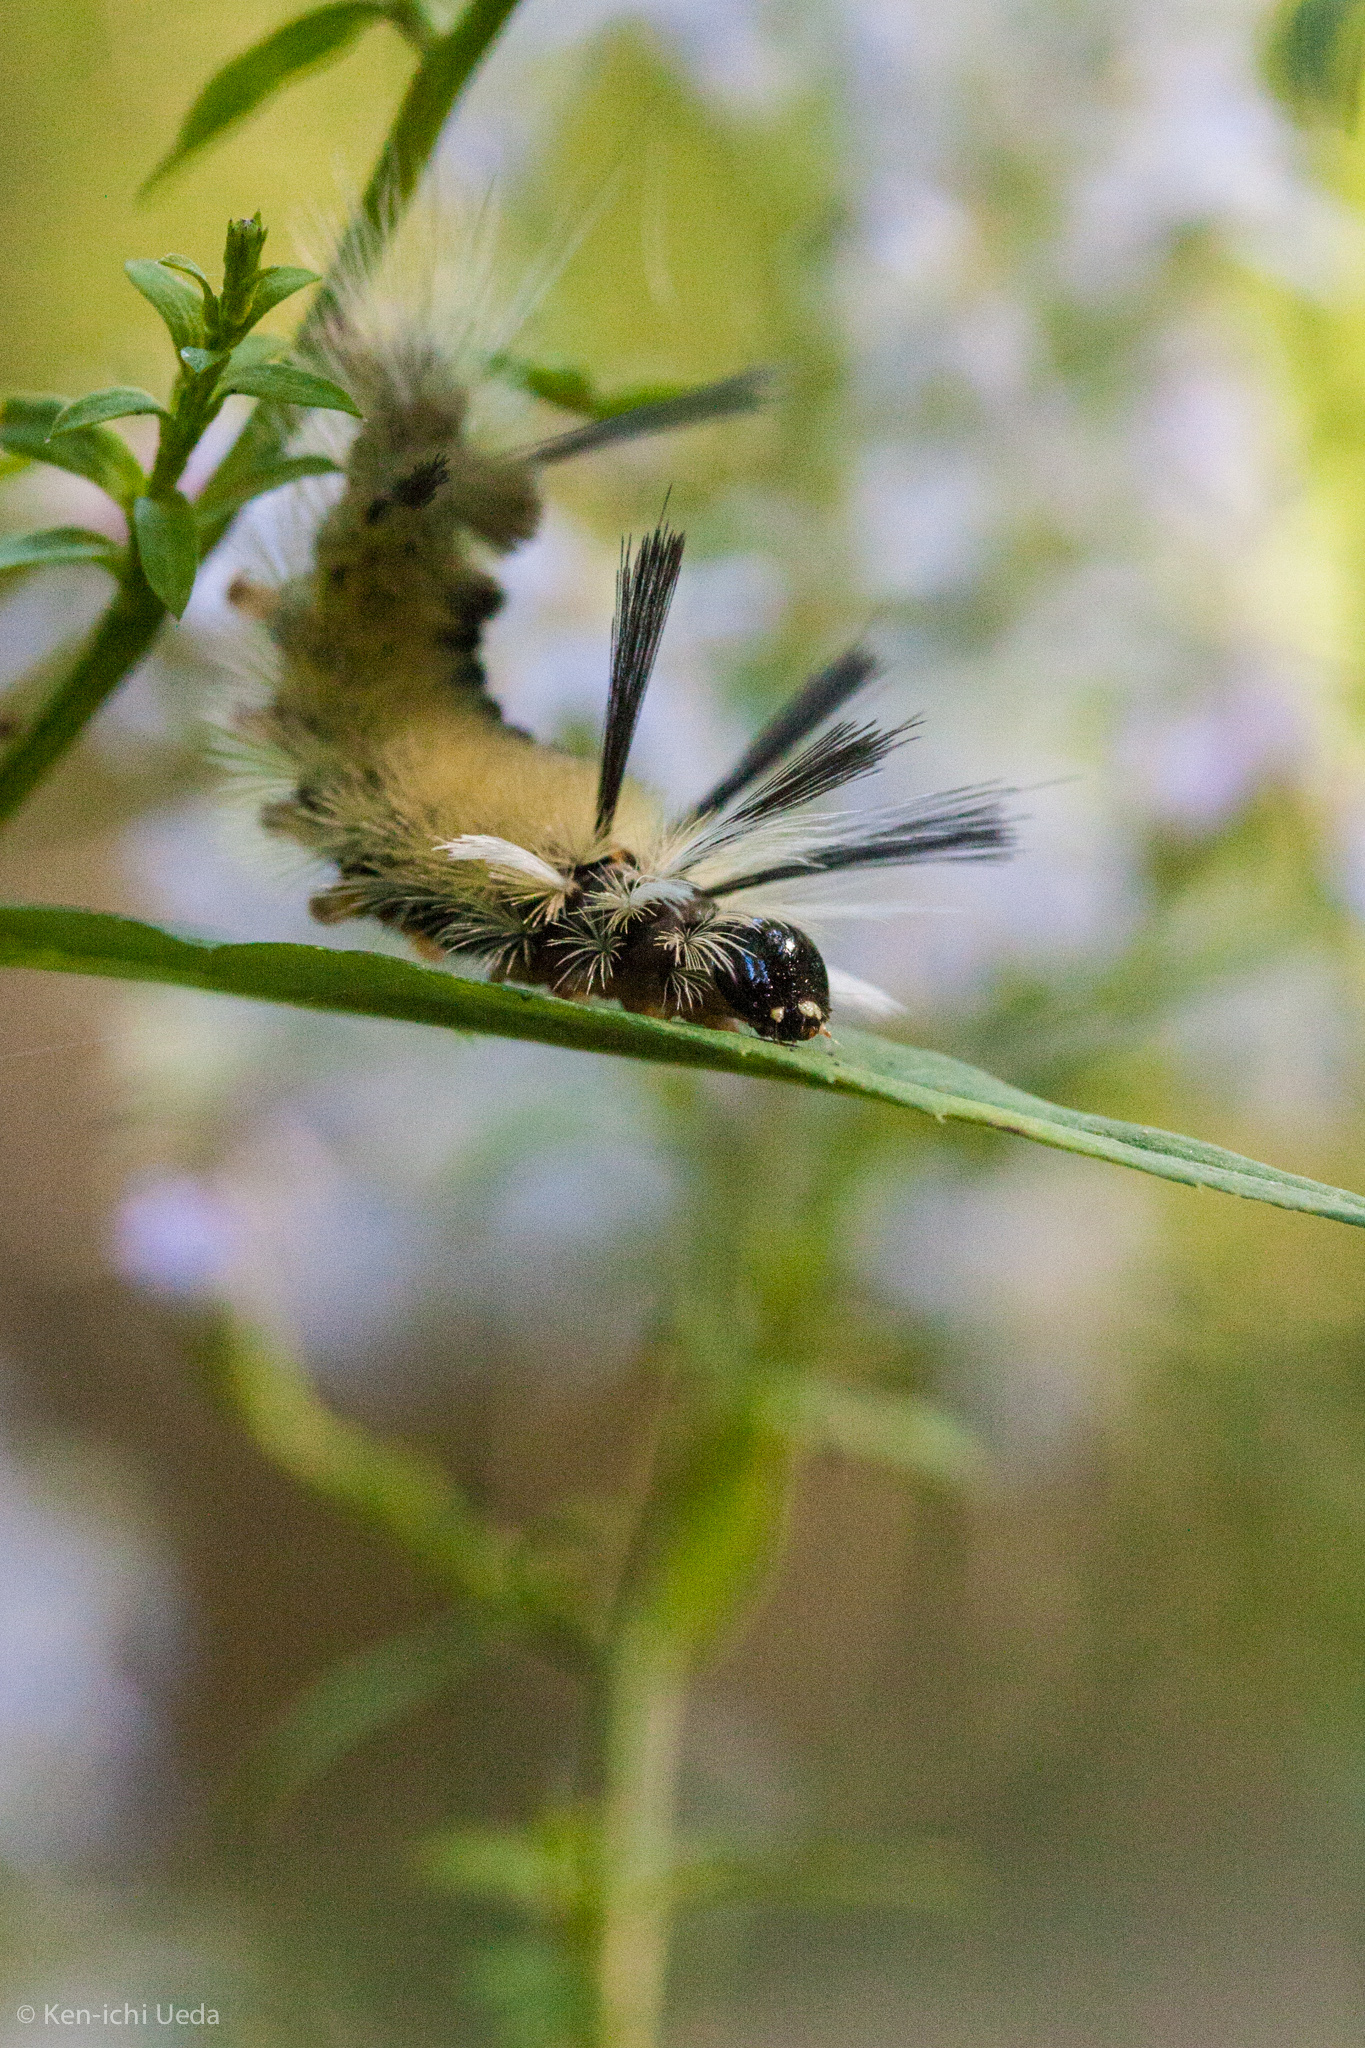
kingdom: Animalia
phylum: Arthropoda
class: Insecta
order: Lepidoptera
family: Erebidae
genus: Halysidota
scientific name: Halysidota tessellaris
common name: Banded tussock moth
